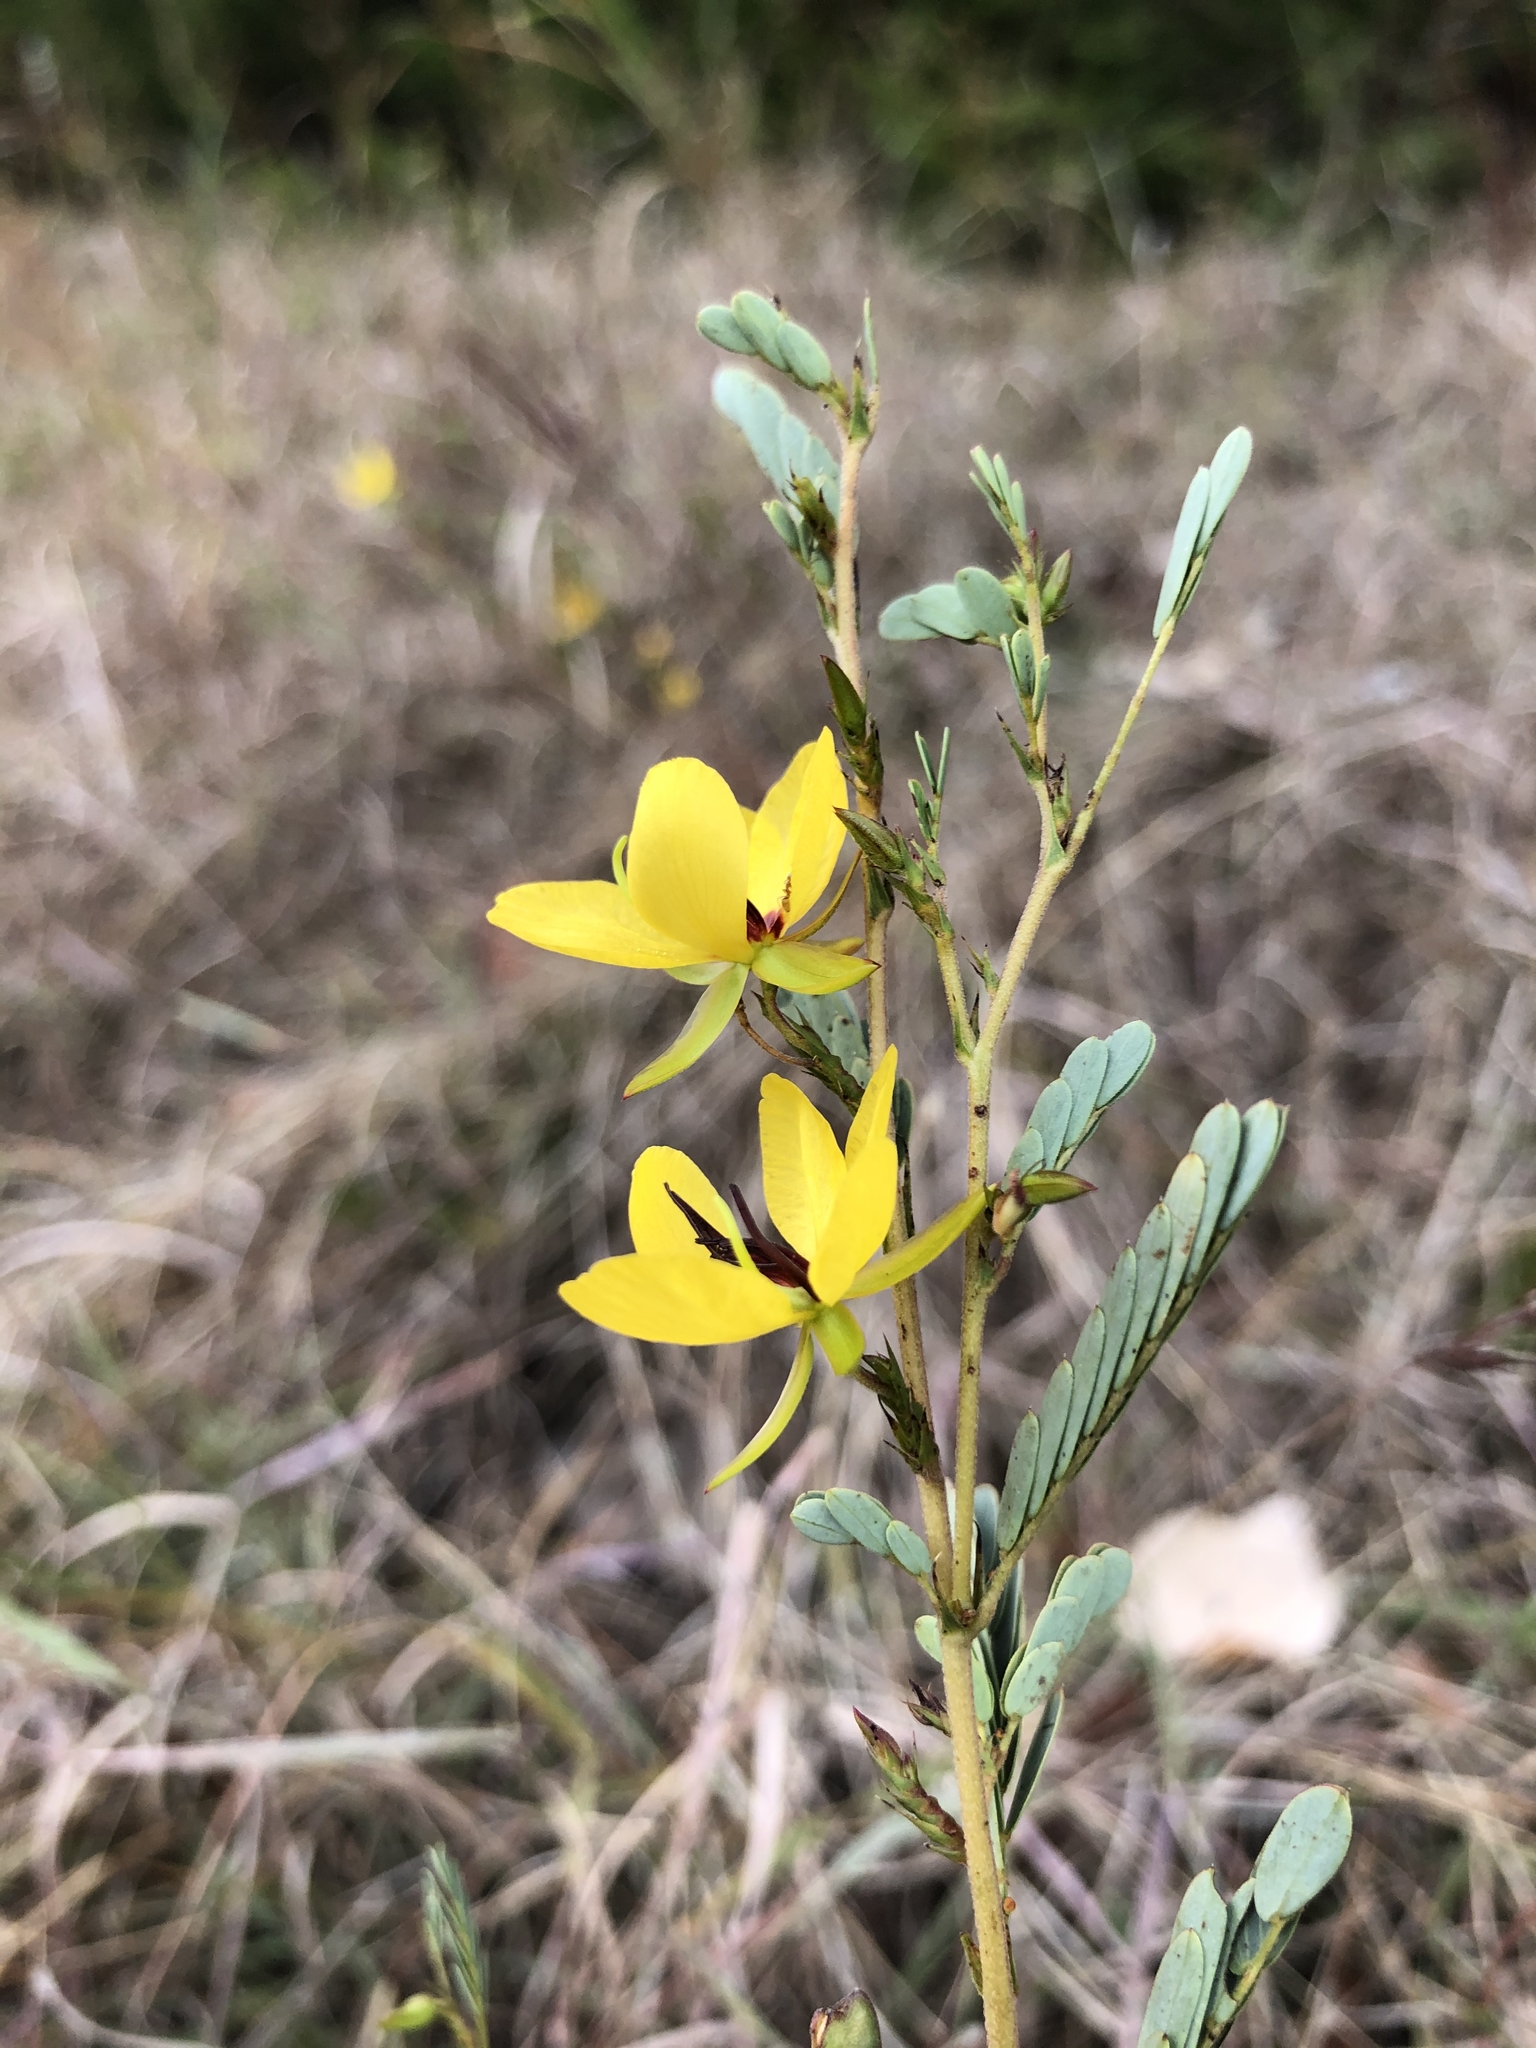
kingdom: Plantae
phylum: Tracheophyta
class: Magnoliopsida
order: Fabales
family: Fabaceae
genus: Chamaecrista
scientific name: Chamaecrista fasciculata
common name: Golden cassia
